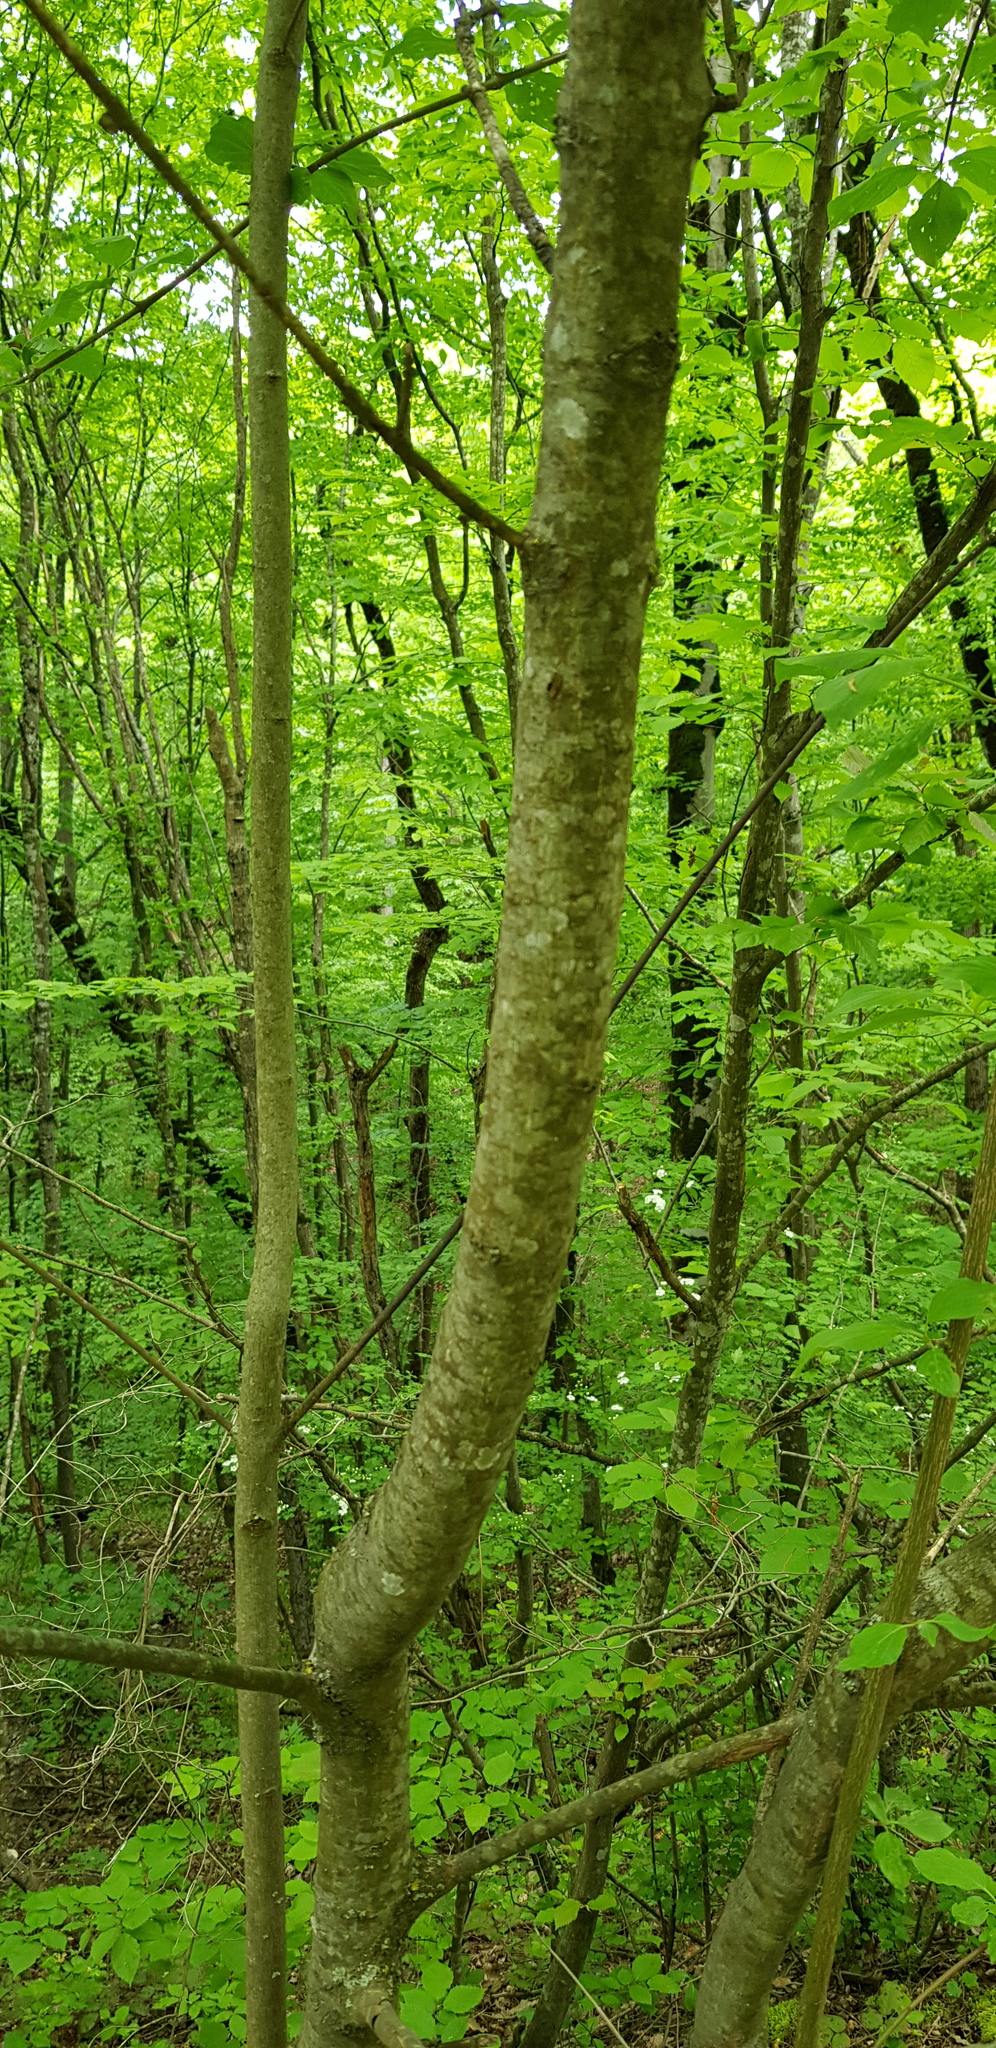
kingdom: Plantae
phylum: Tracheophyta
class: Magnoliopsida
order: Cornales
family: Cornaceae
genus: Cornus
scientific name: Cornus sanguinea
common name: Dogwood
